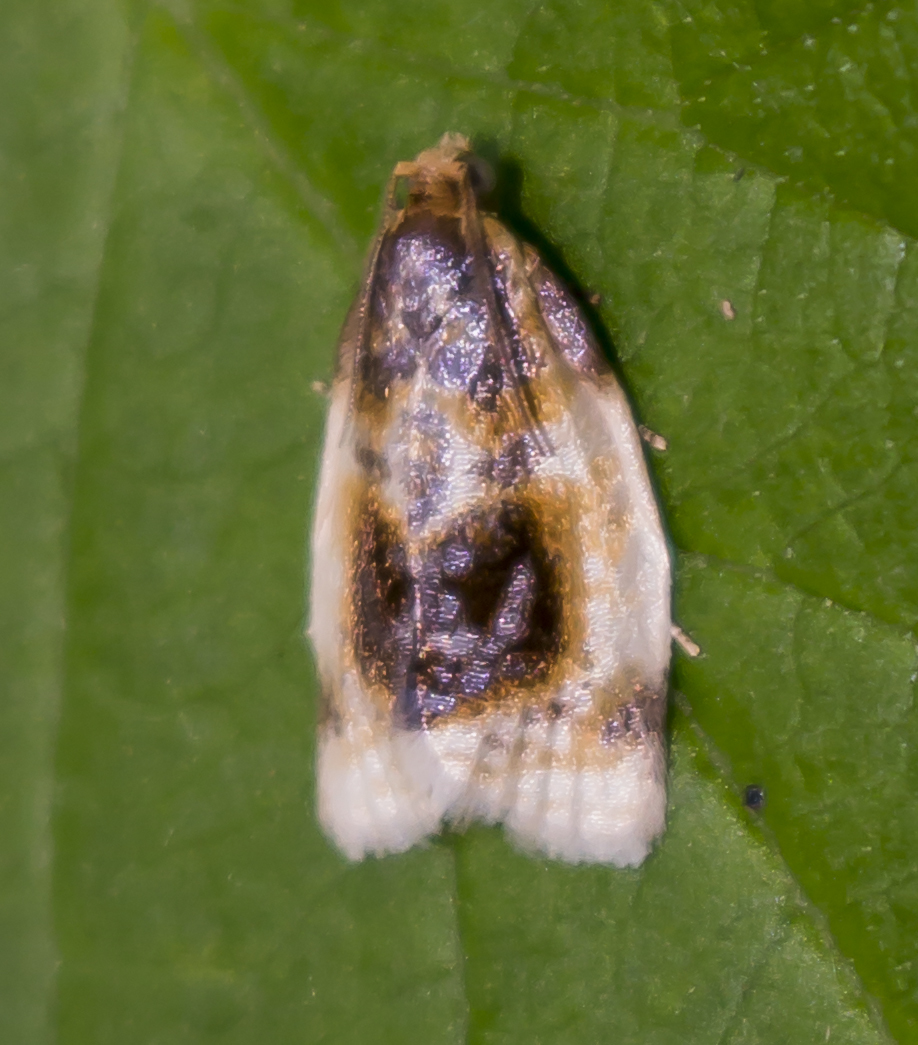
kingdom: Animalia
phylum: Arthropoda
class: Insecta
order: Lepidoptera
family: Tortricidae
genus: Clepsis
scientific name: Clepsis melaleucanus
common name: American apple tortrix
